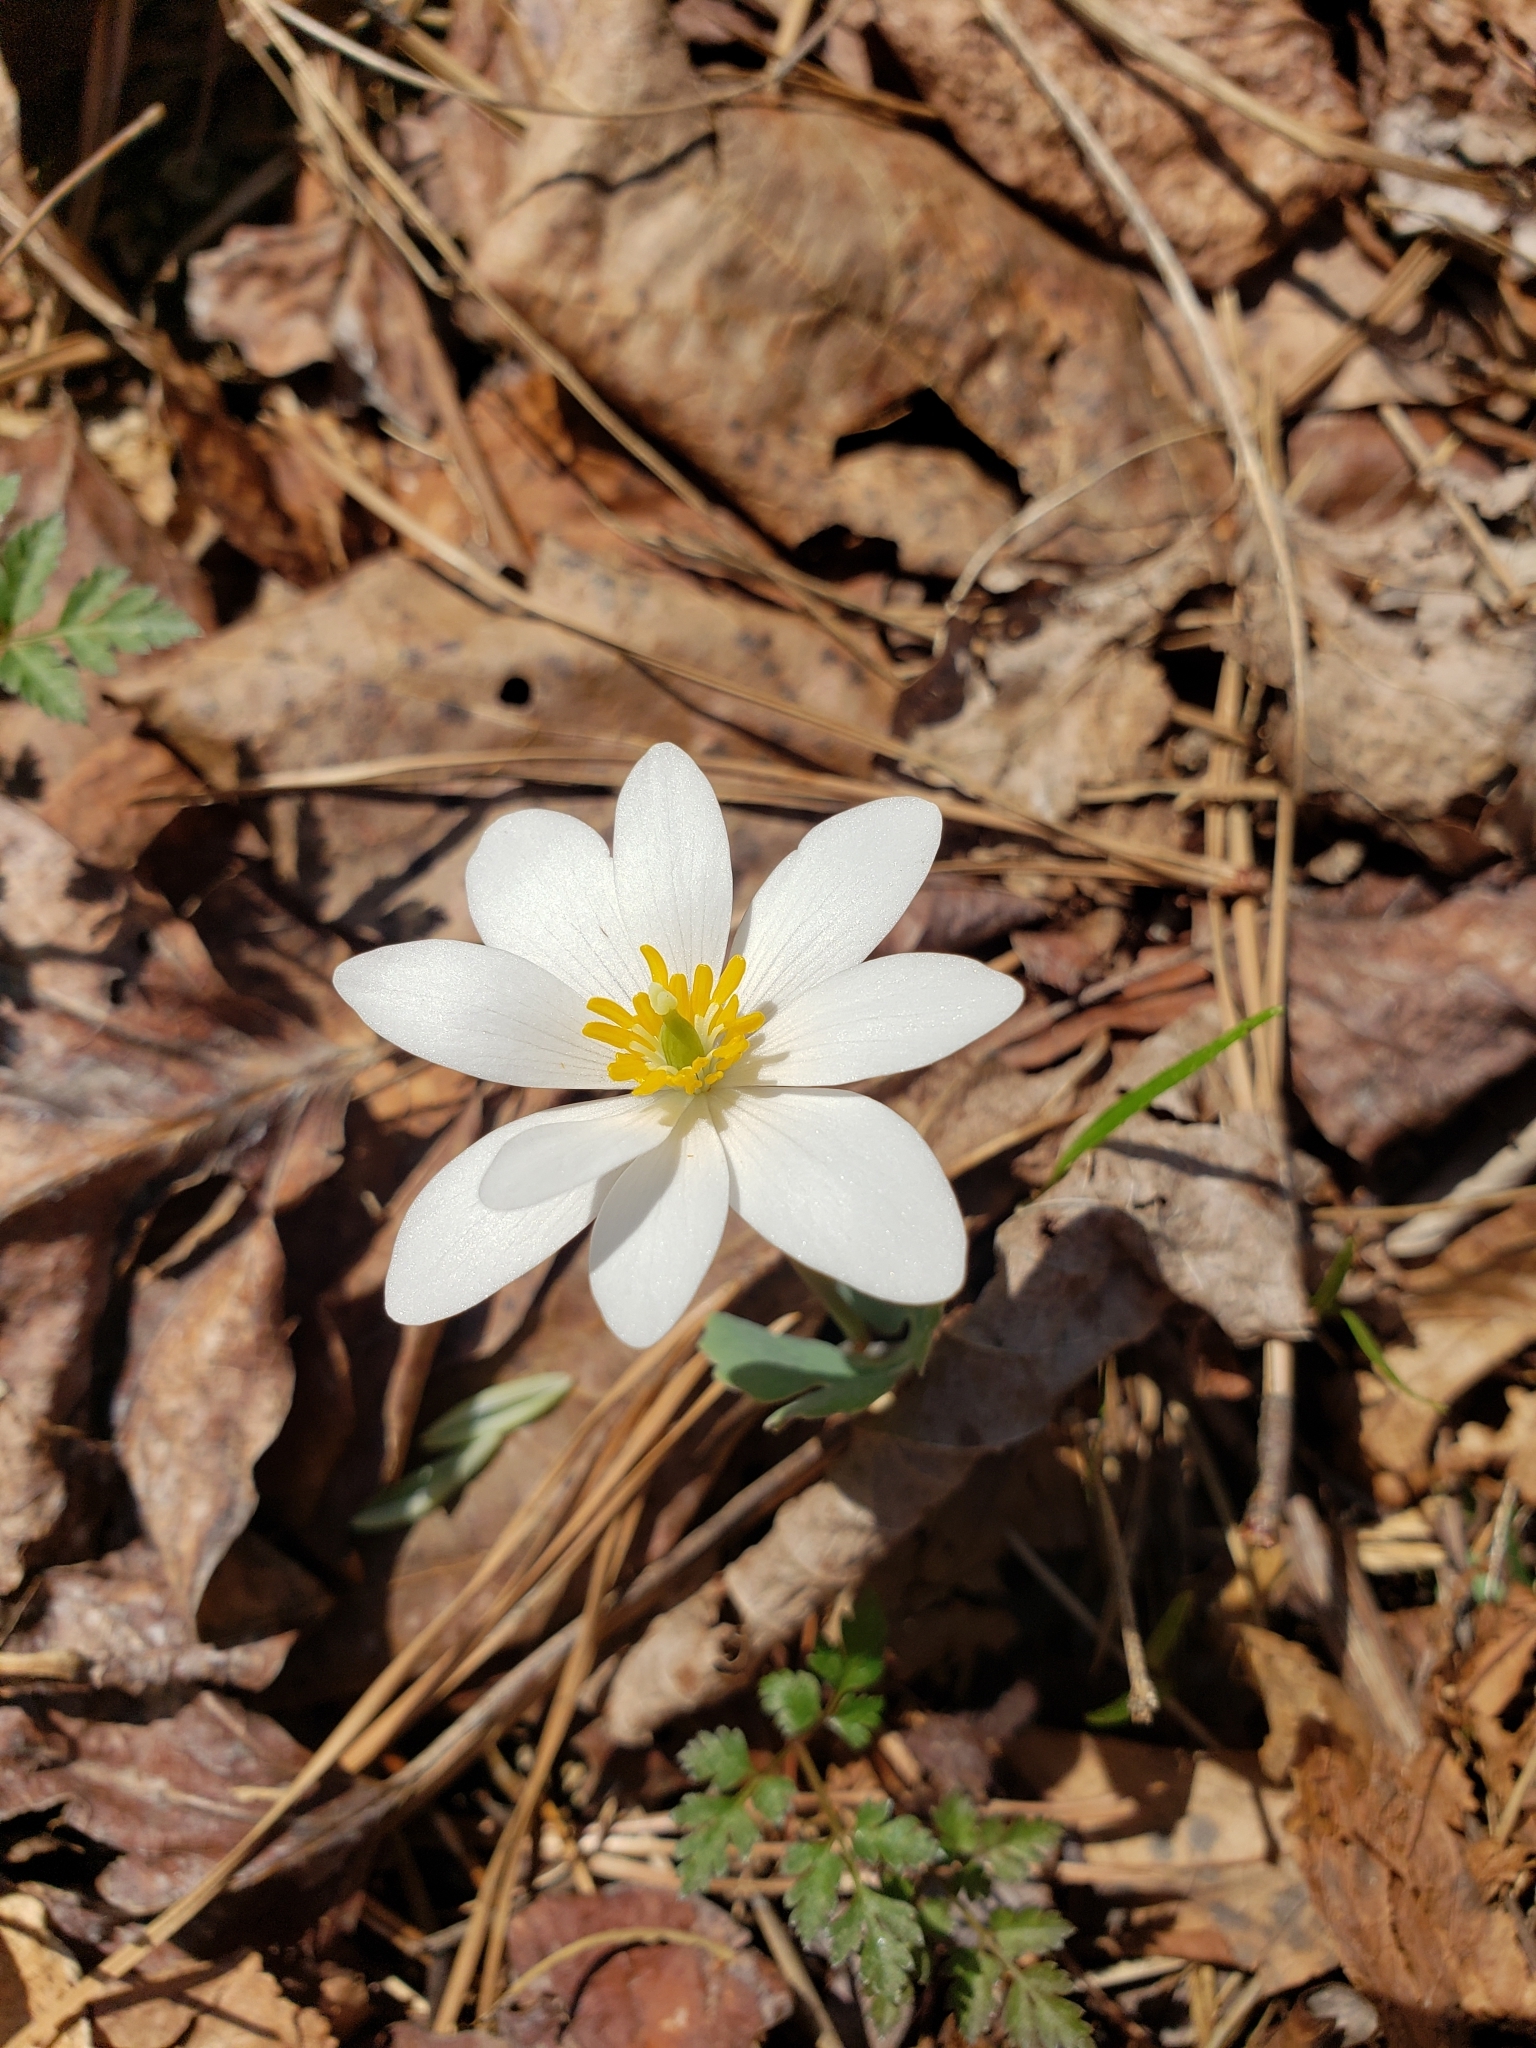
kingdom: Plantae
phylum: Tracheophyta
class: Magnoliopsida
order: Ranunculales
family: Papaveraceae
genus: Sanguinaria
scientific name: Sanguinaria canadensis
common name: Bloodroot
